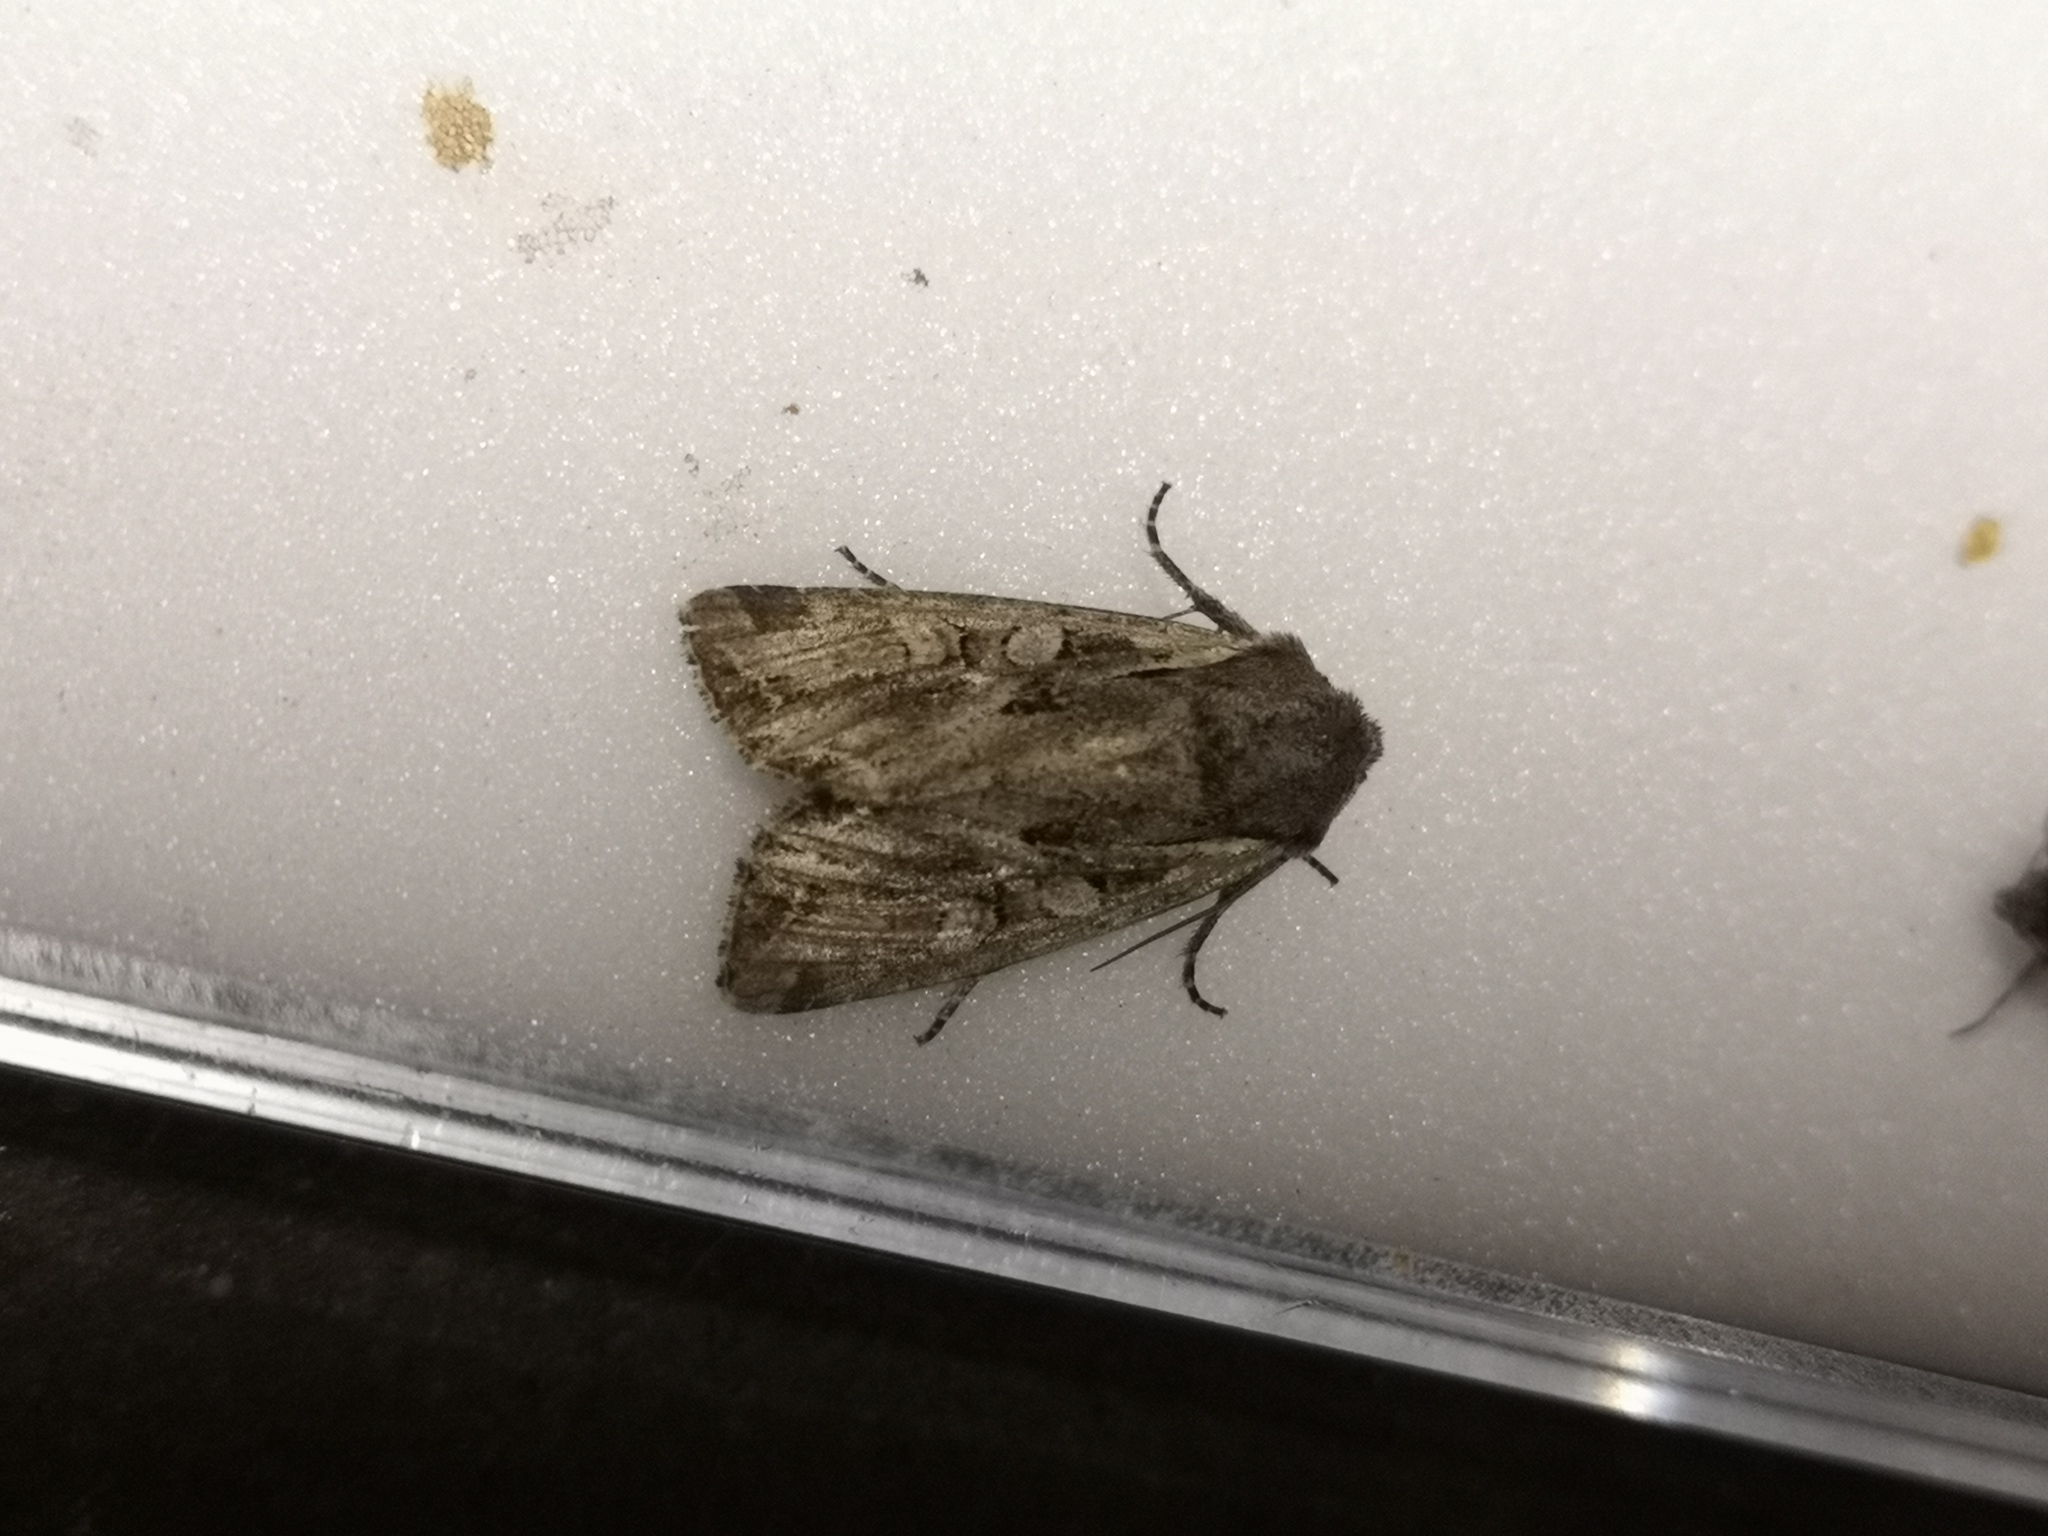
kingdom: Animalia
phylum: Arthropoda
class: Insecta
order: Lepidoptera
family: Noctuidae
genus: Lacanobia
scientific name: Lacanobia suasa
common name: Dog's tooth
